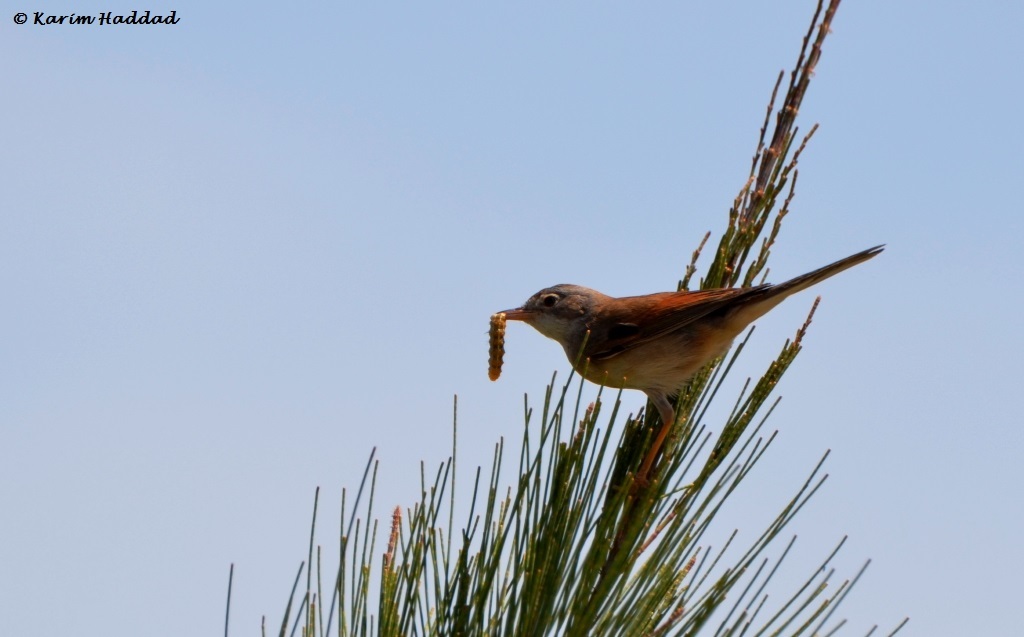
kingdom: Animalia
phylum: Chordata
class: Aves
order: Passeriformes
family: Sylviidae
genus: Sylvia
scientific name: Sylvia communis
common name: Common whitethroat
